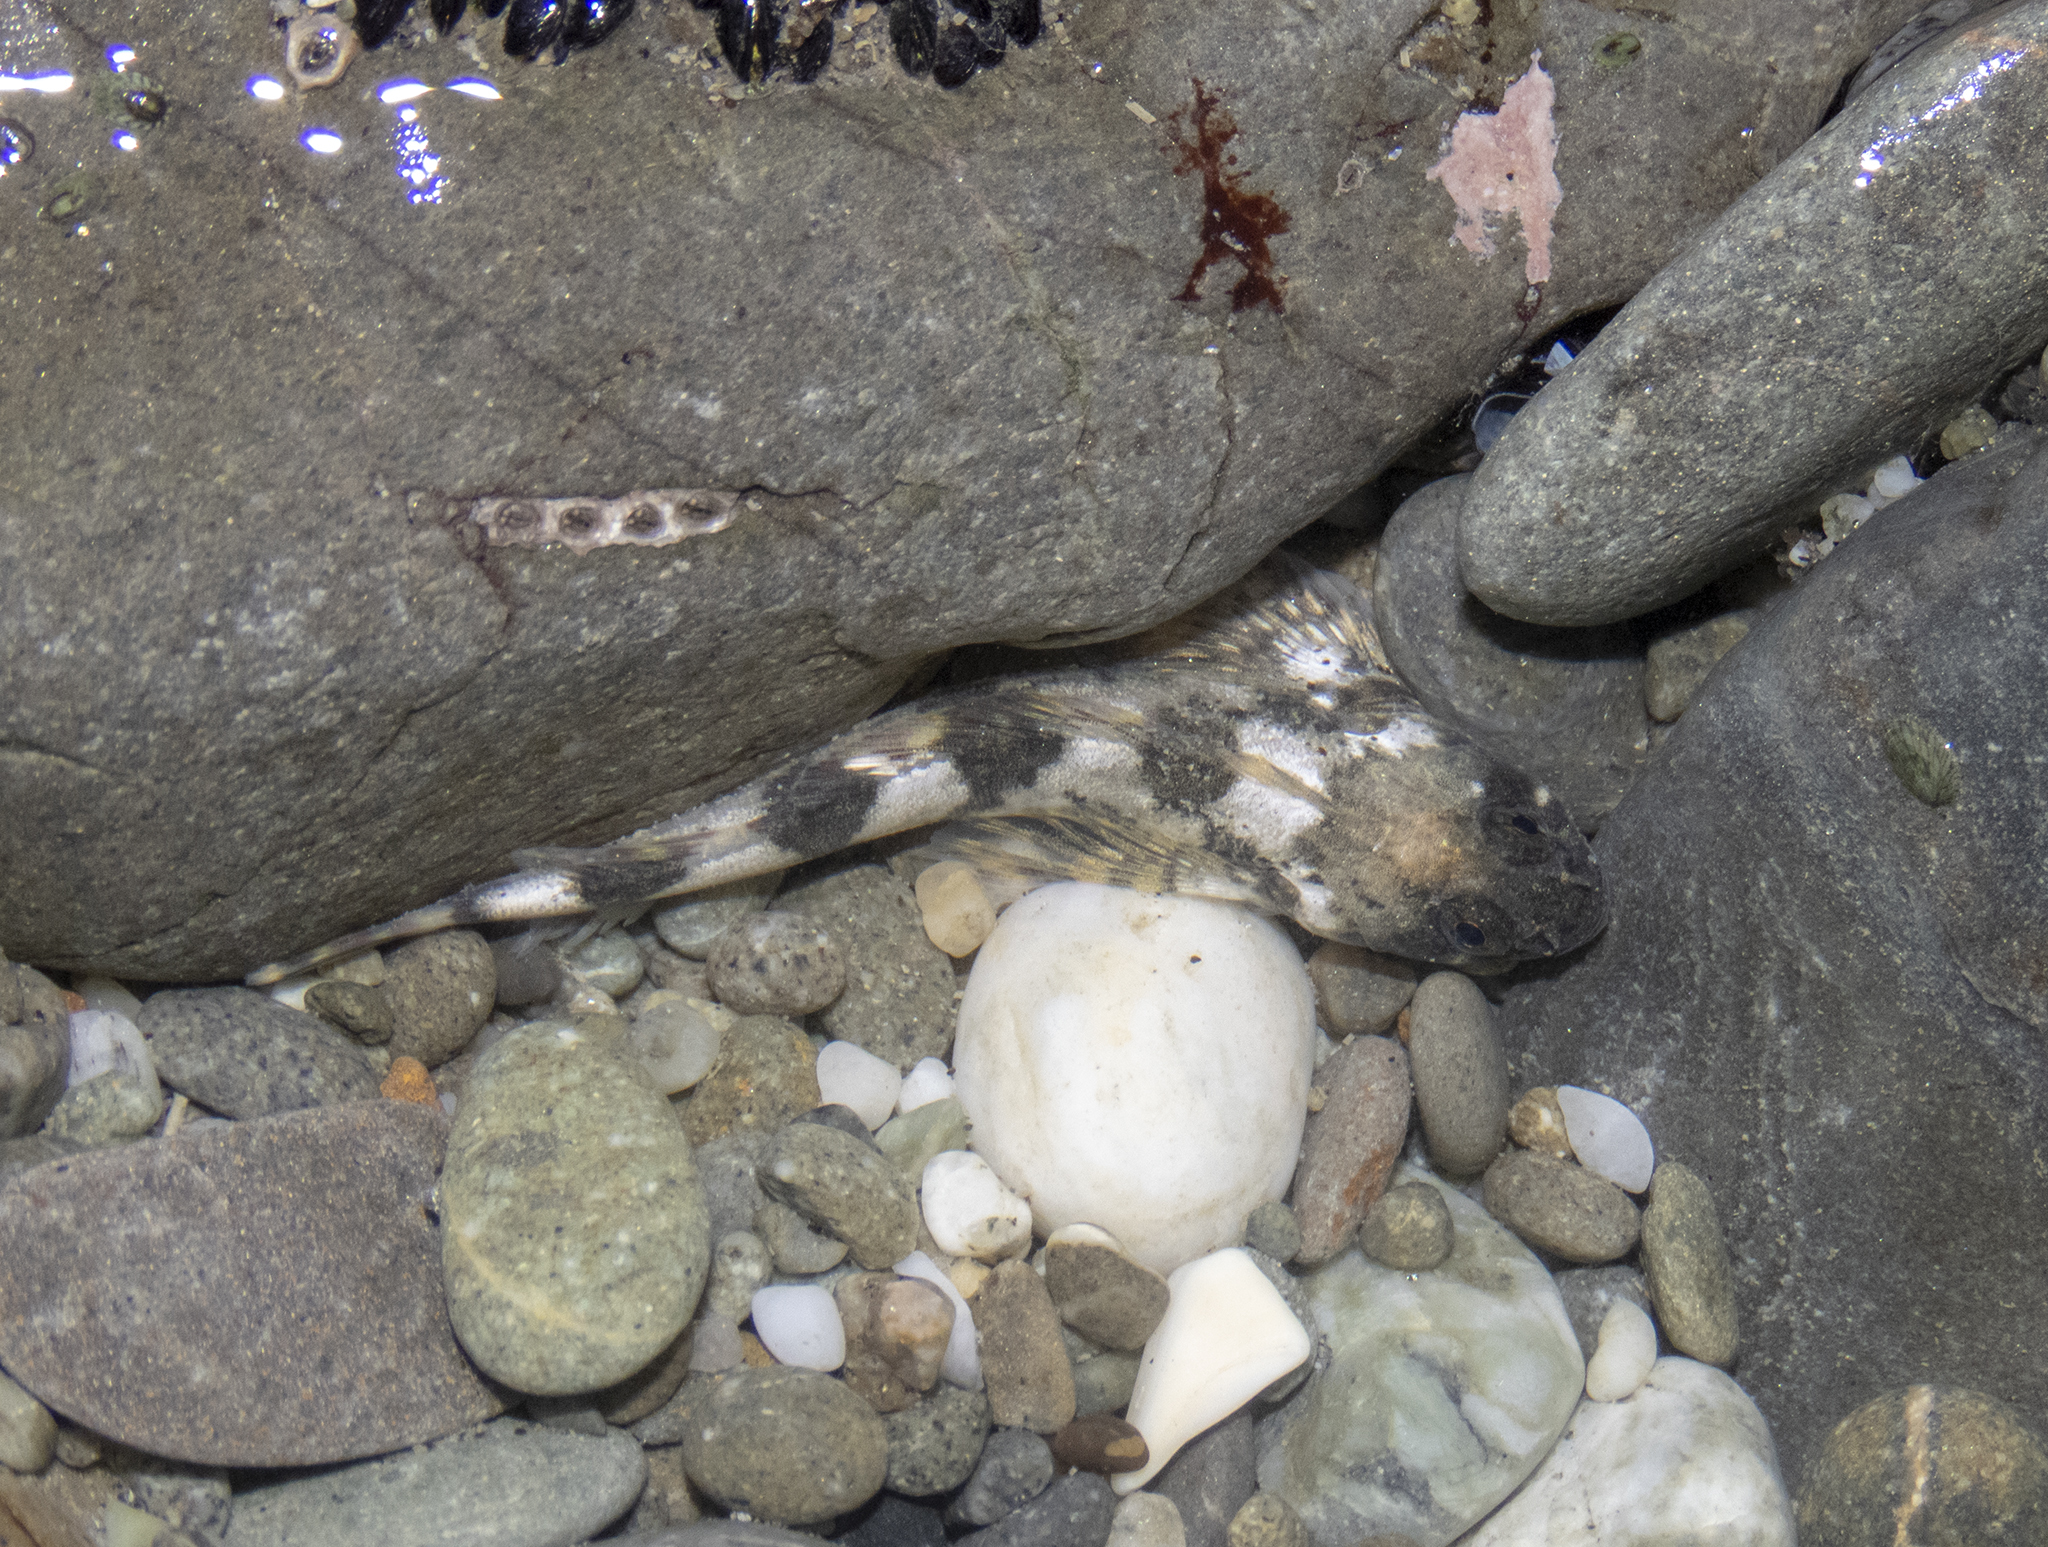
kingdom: Animalia
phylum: Chordata
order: Perciformes
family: Tripterygiidae
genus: Blennodon
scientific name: Blennodon dorsalis
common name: Giant triplefin
